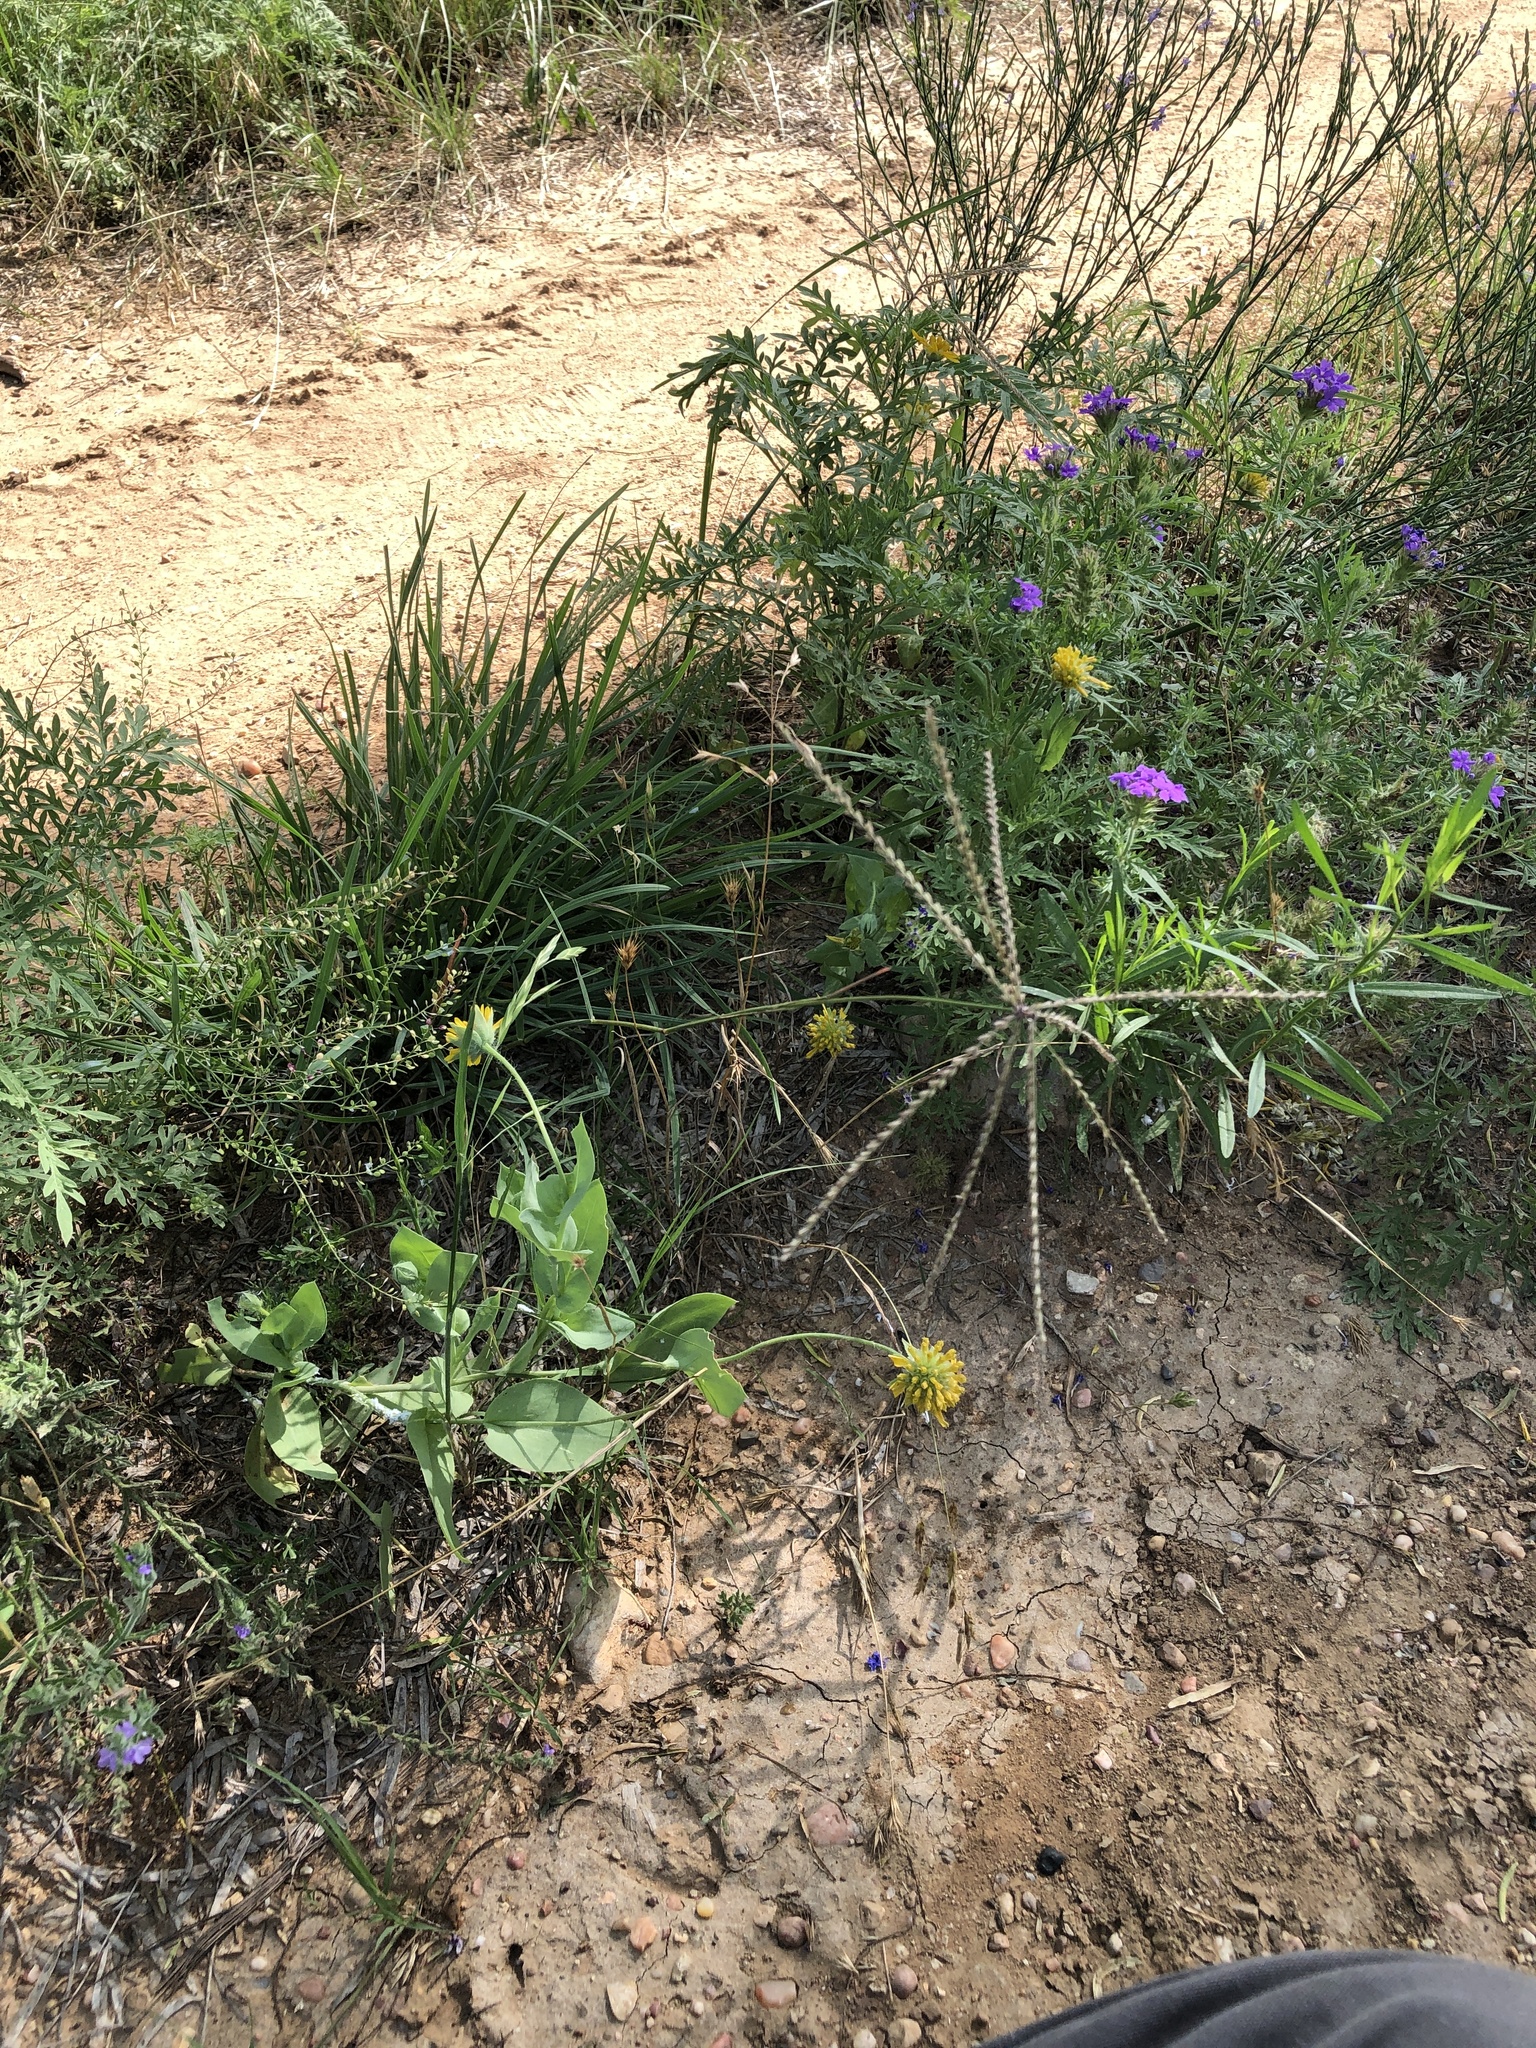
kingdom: Plantae
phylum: Tracheophyta
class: Liliopsida
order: Poales
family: Poaceae
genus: Chloris
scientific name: Chloris verticillata
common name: Tumble windmill grass
